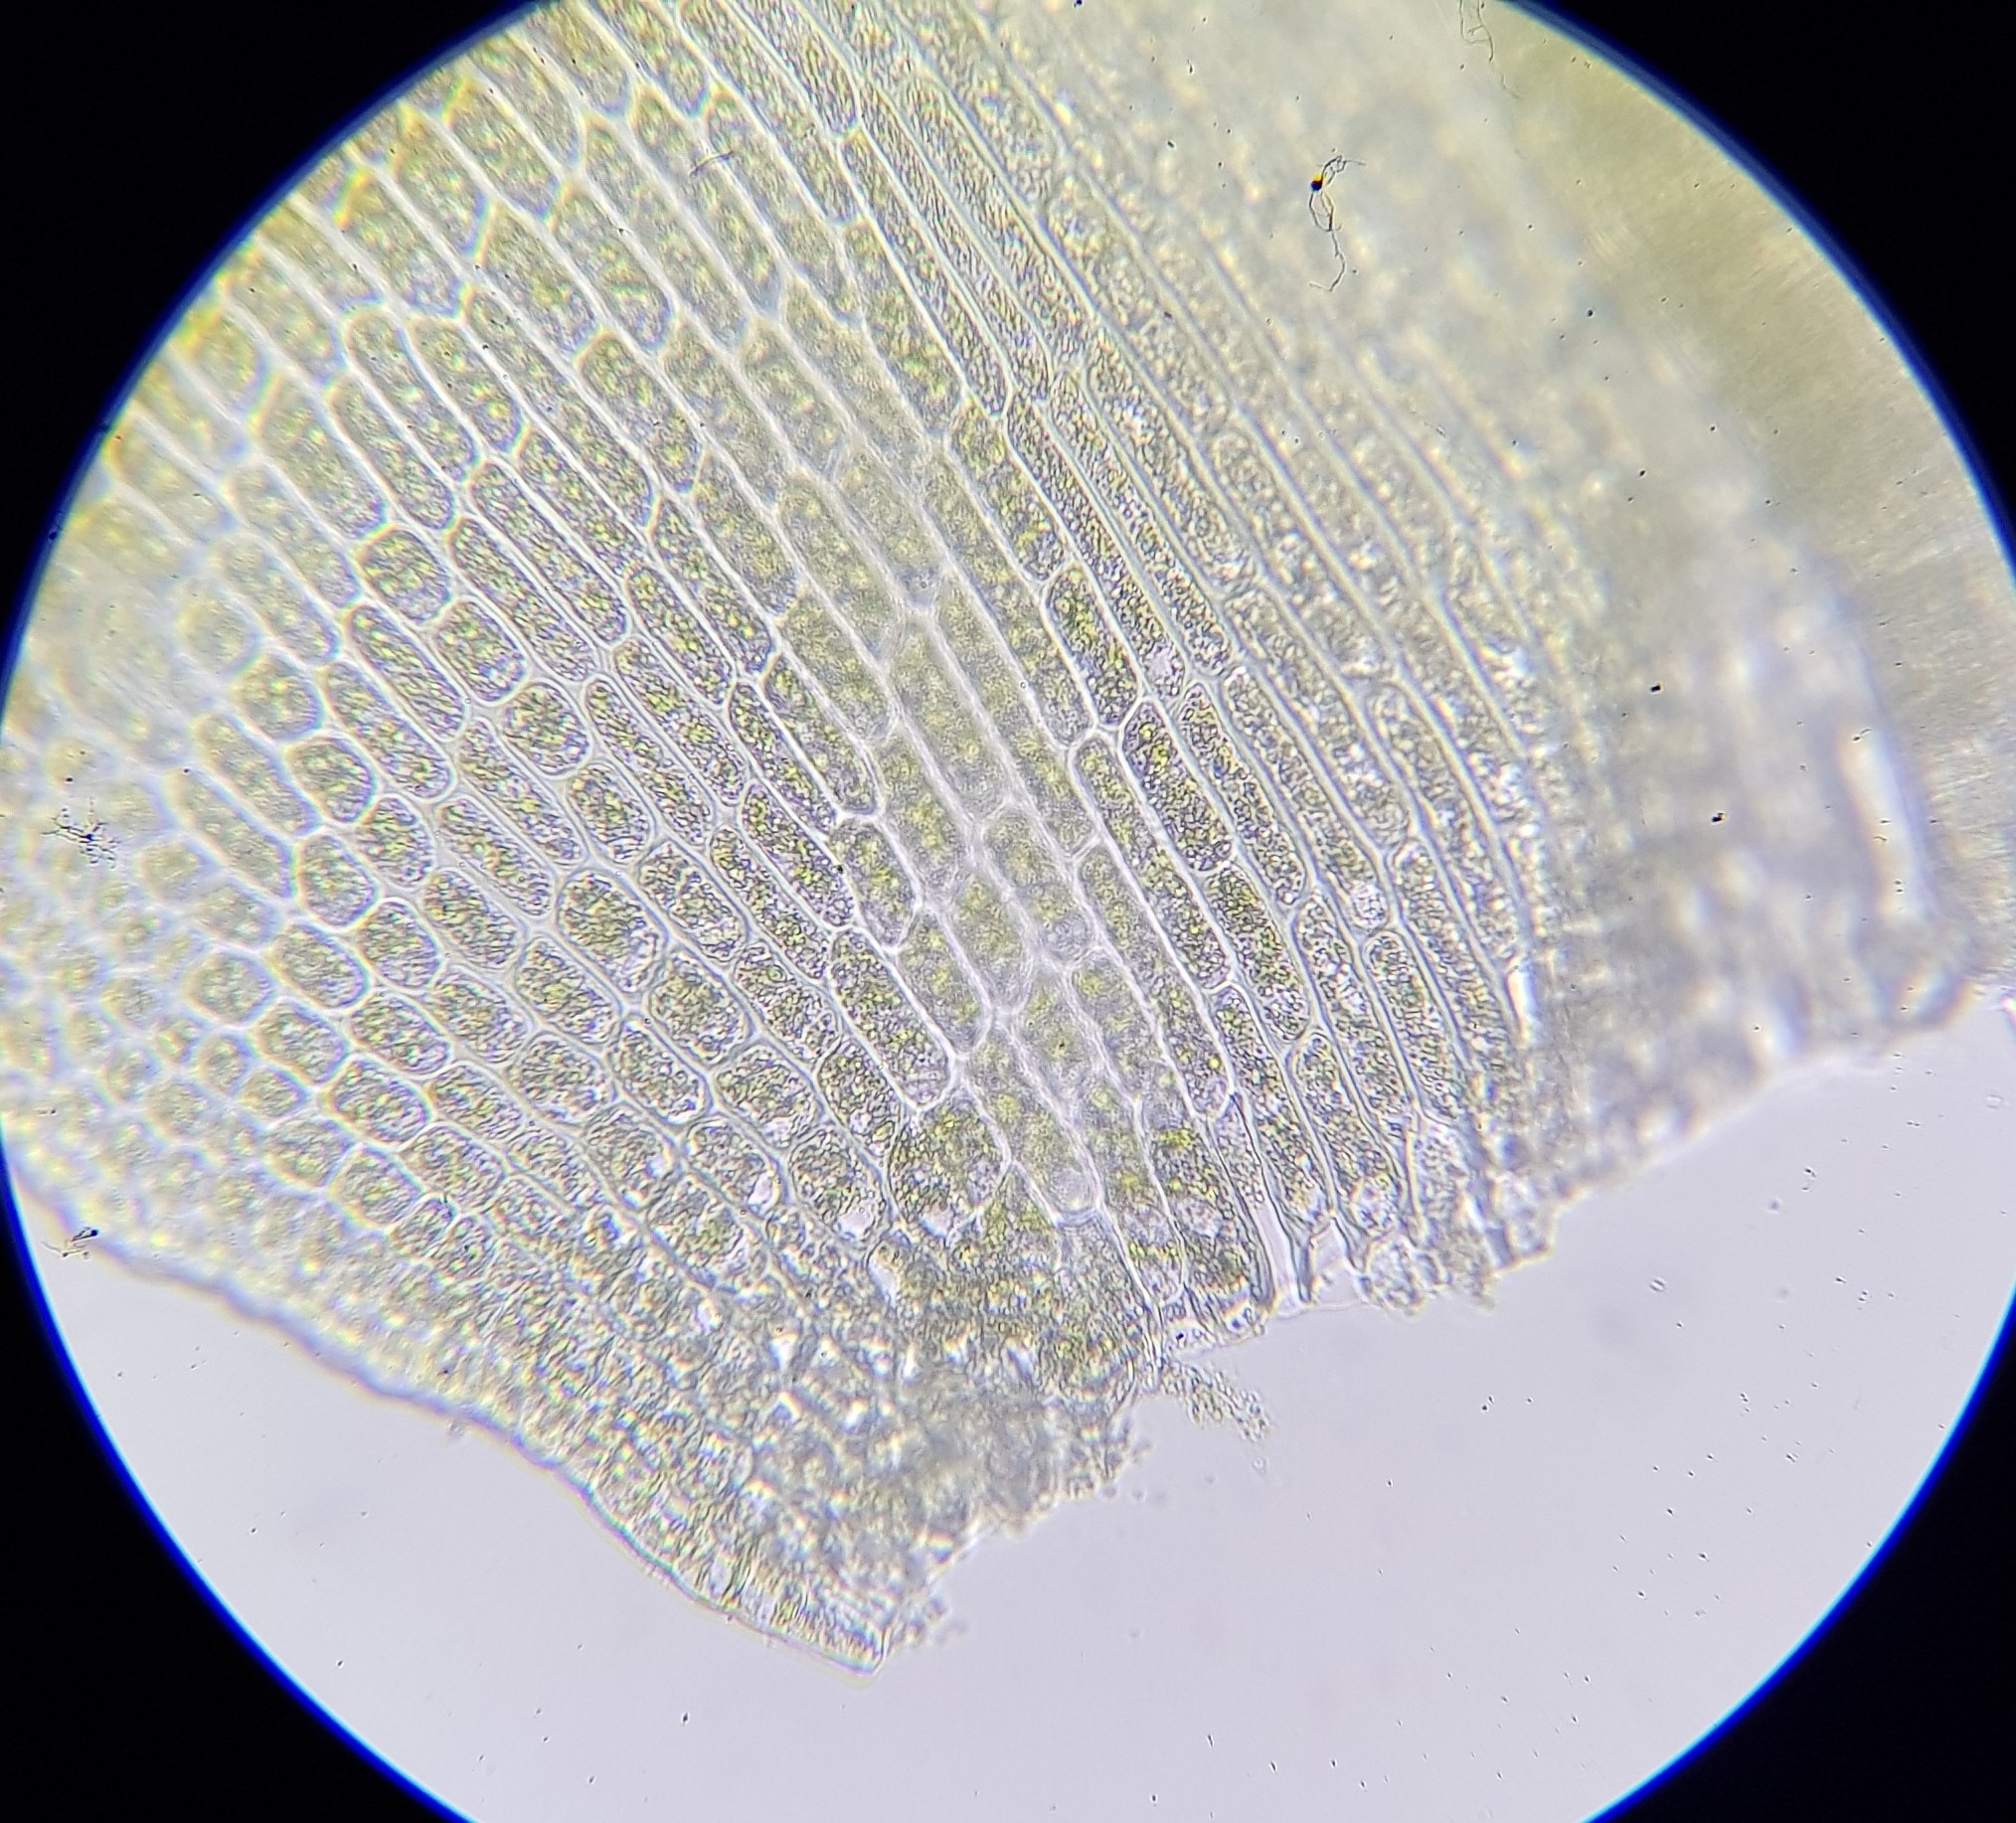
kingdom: Plantae
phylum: Bryophyta
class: Bryopsida
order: Dicranales
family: Aongstroemiaceae
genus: Dichodontium
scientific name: Dichodontium pellucidum
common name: Transparent fork moss
